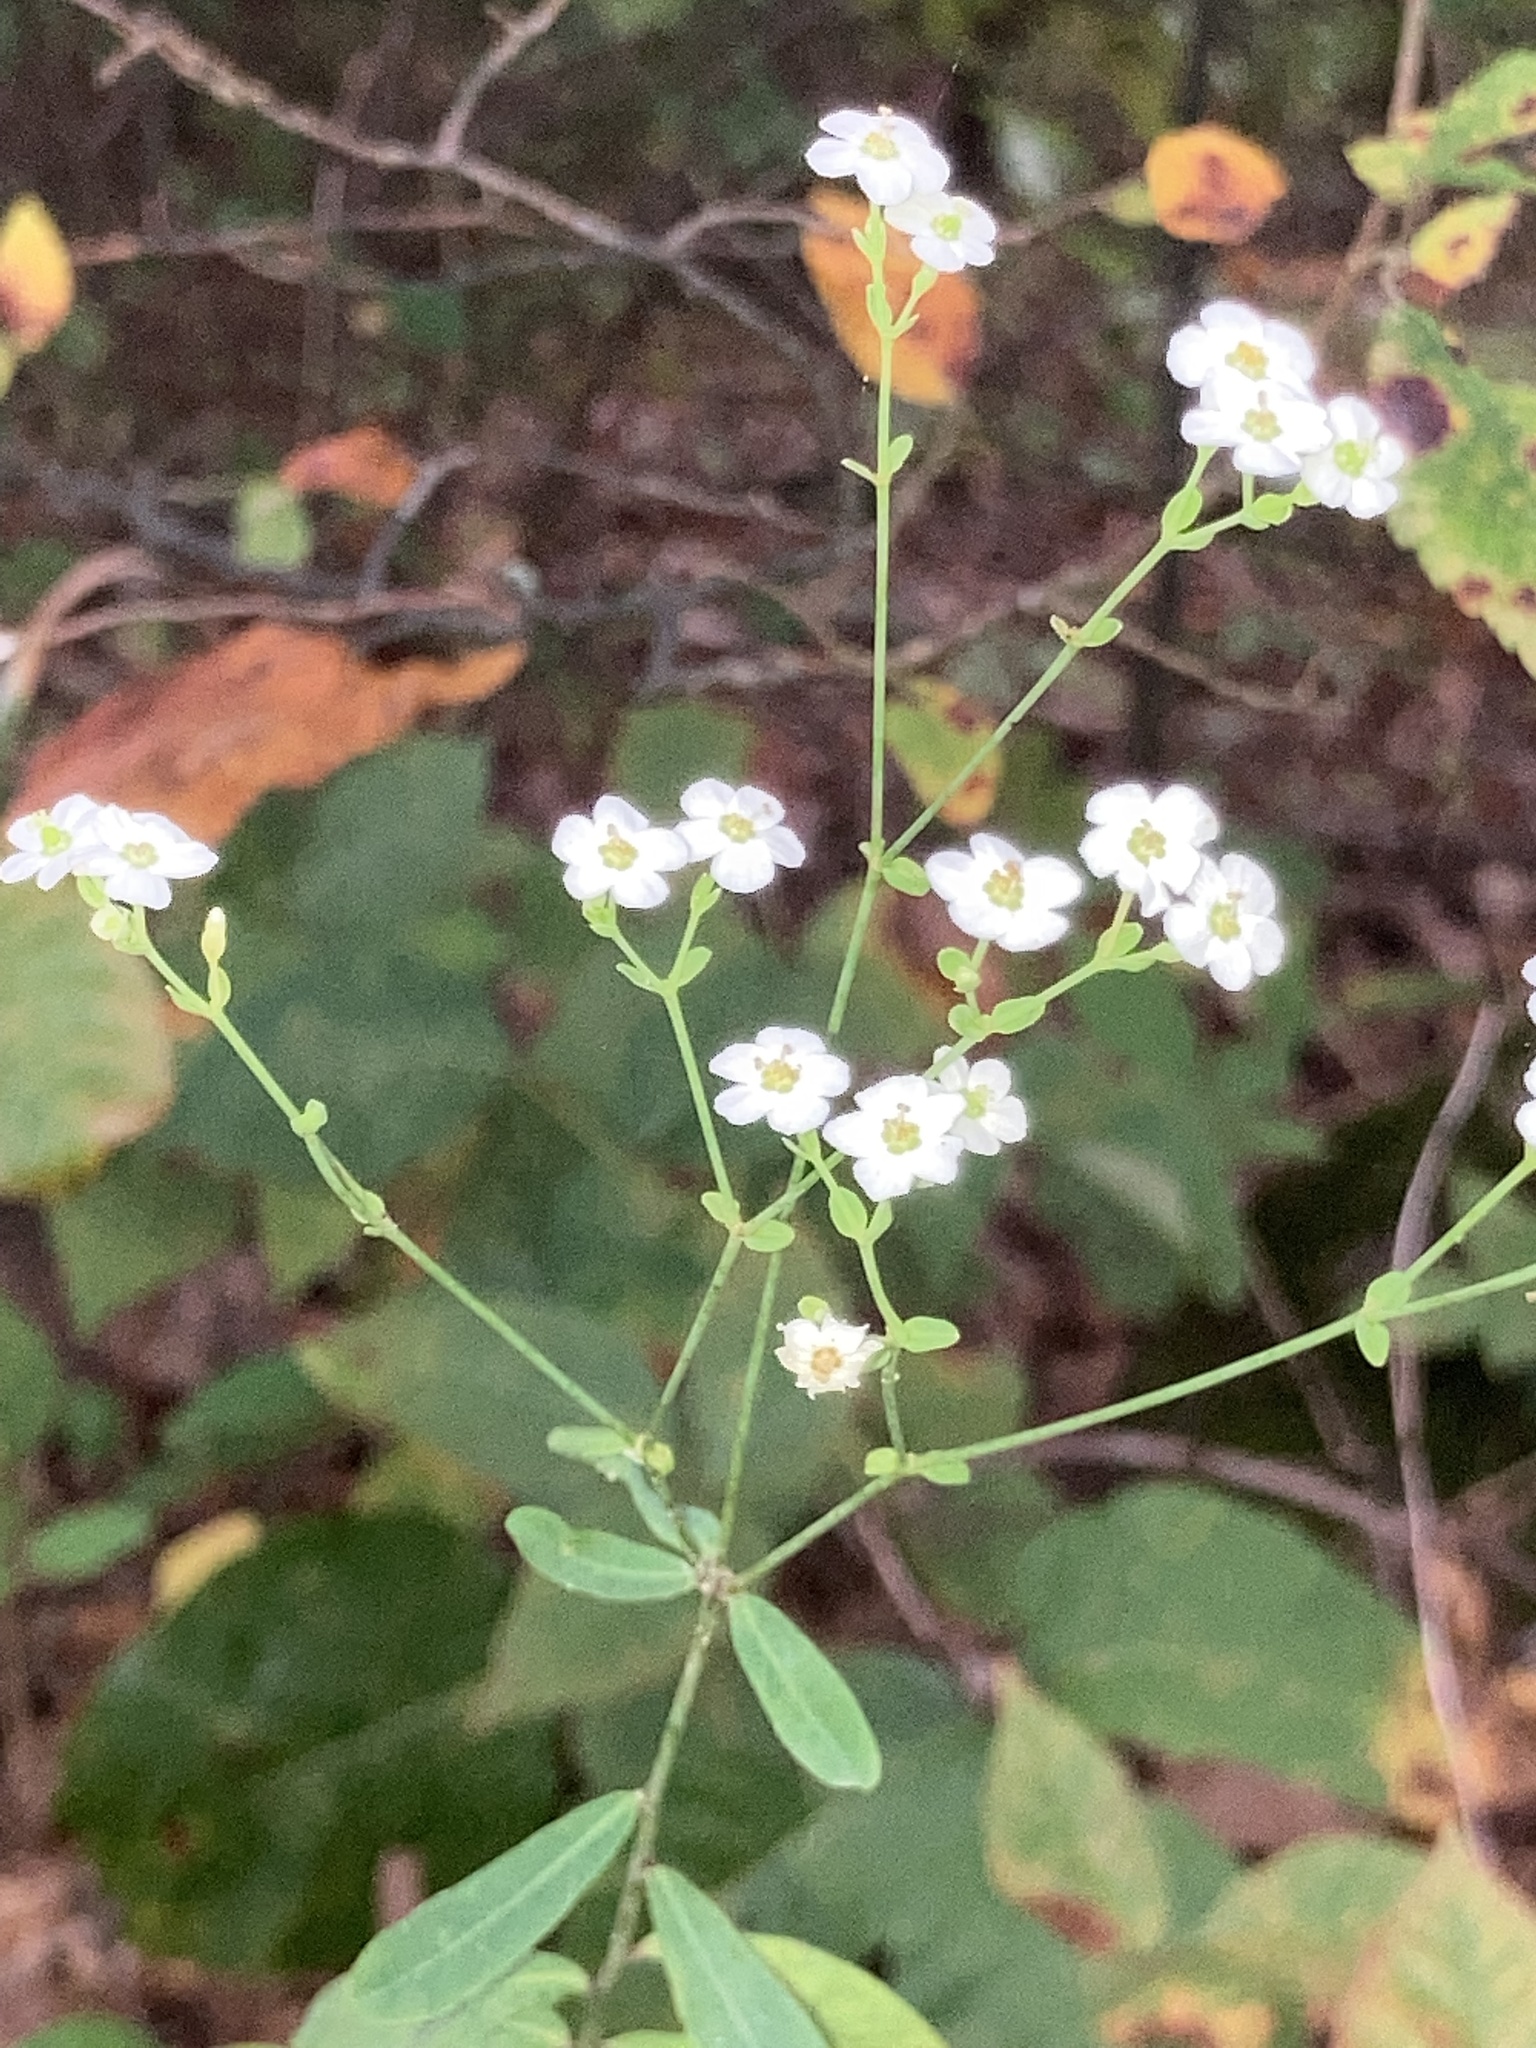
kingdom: Plantae
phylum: Tracheophyta
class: Magnoliopsida
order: Malpighiales
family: Euphorbiaceae
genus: Euphorbia
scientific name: Euphorbia corollata
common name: Flowering spurge
